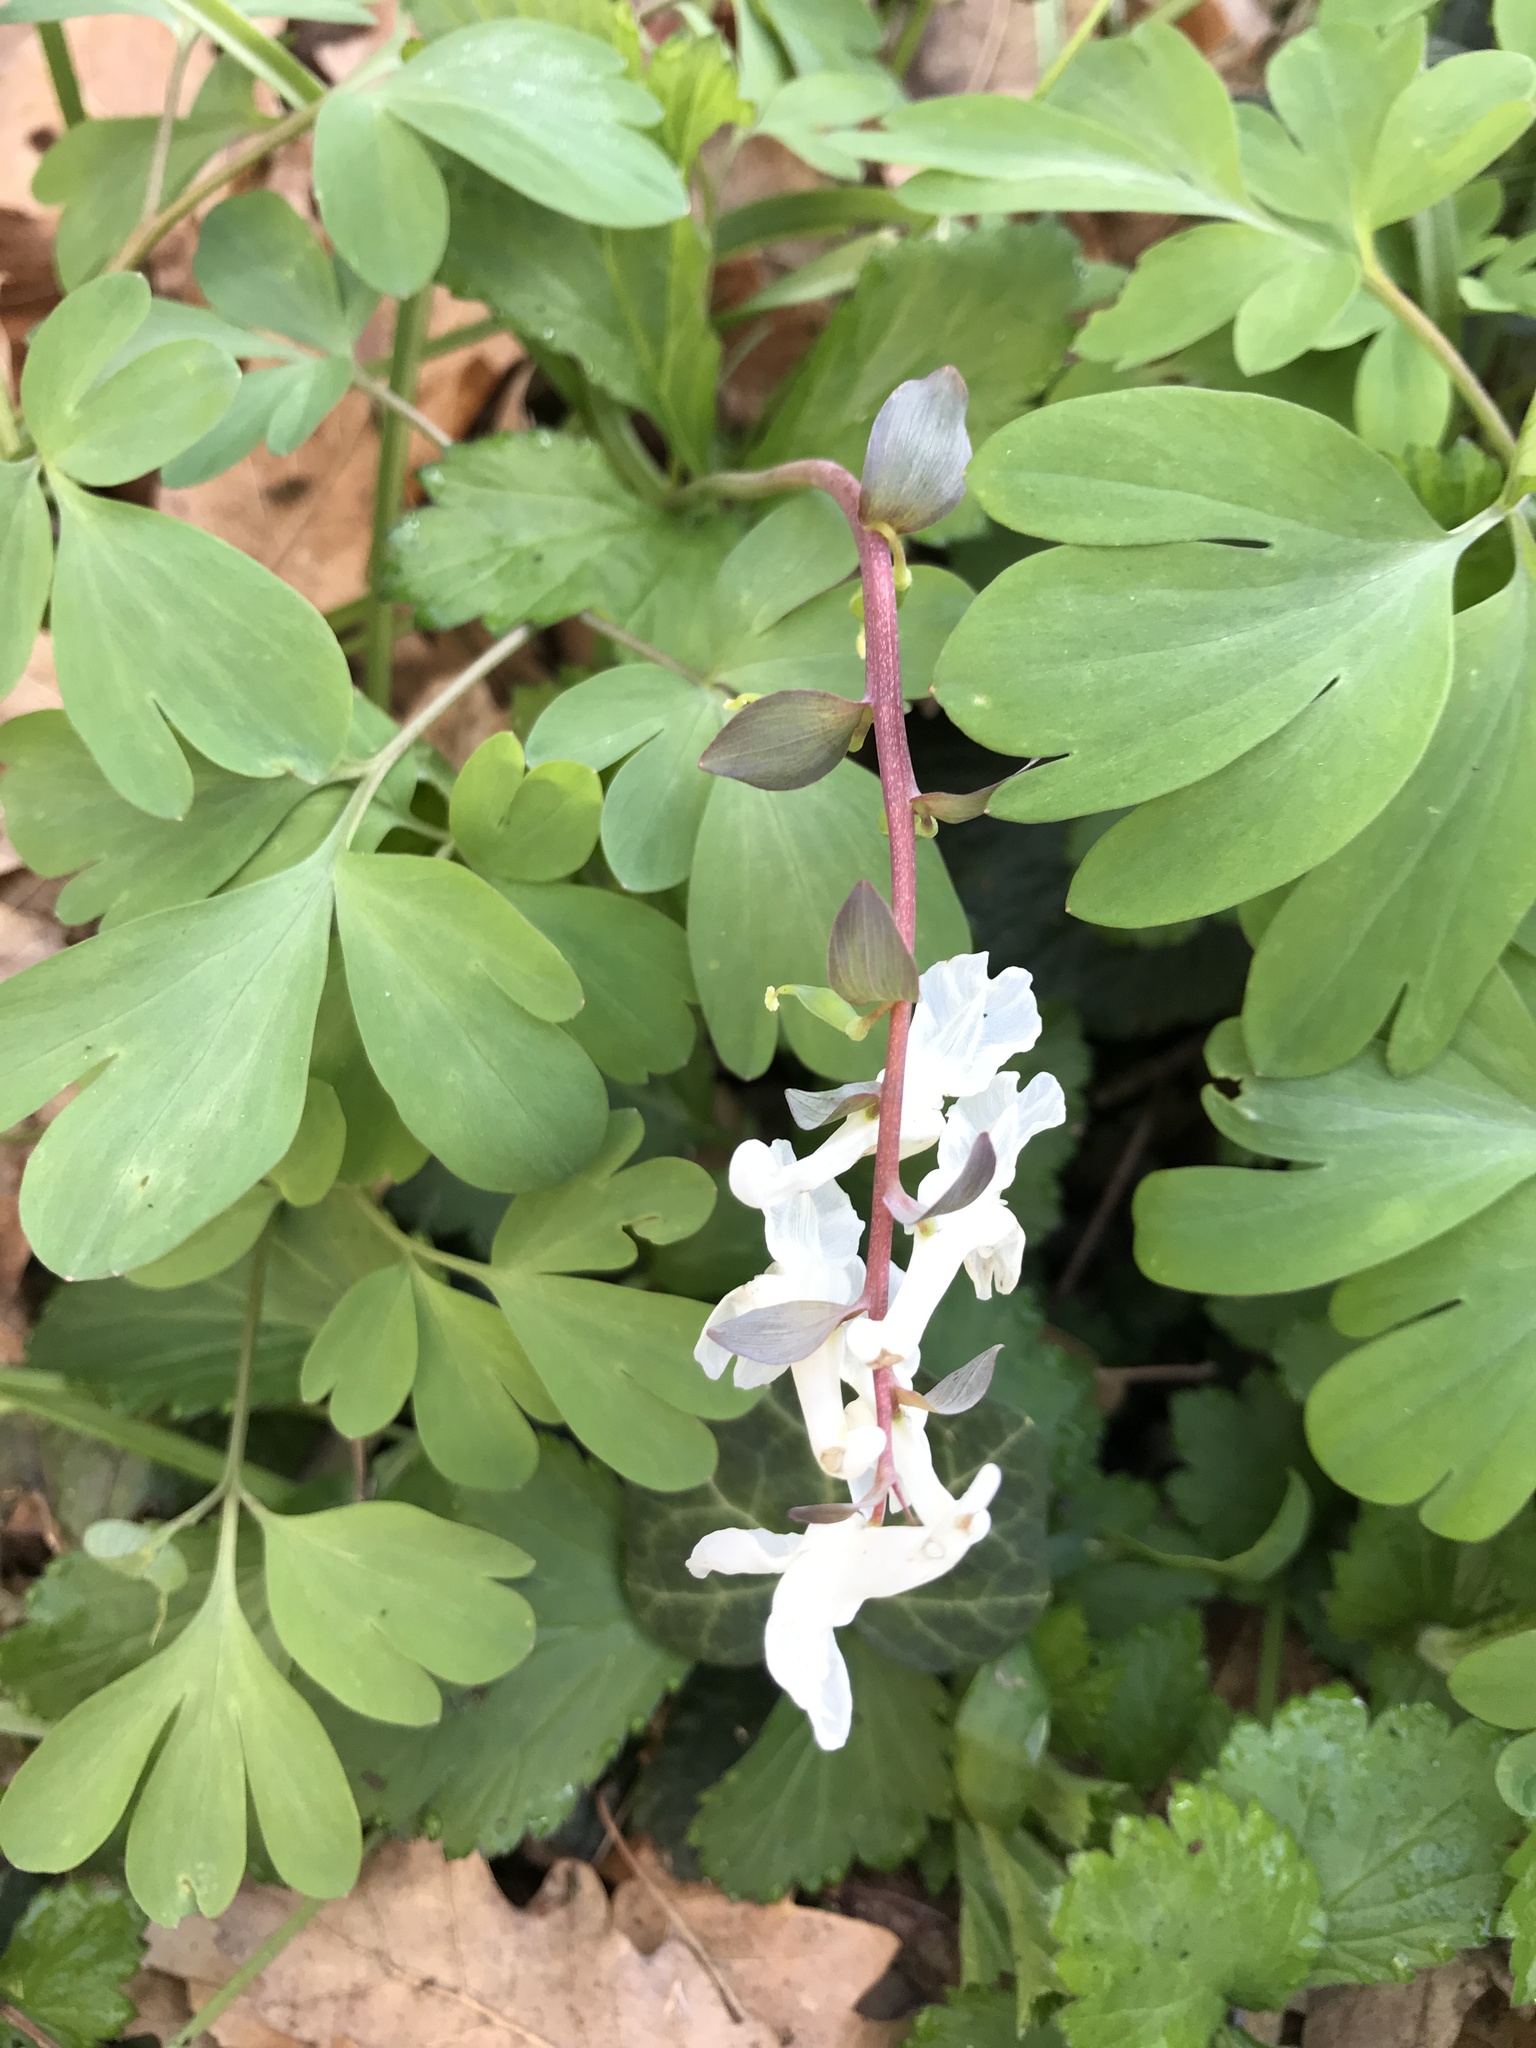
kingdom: Plantae
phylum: Tracheophyta
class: Magnoliopsida
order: Ranunculales
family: Papaveraceae
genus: Corydalis
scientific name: Corydalis cava
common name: Hollowroot
